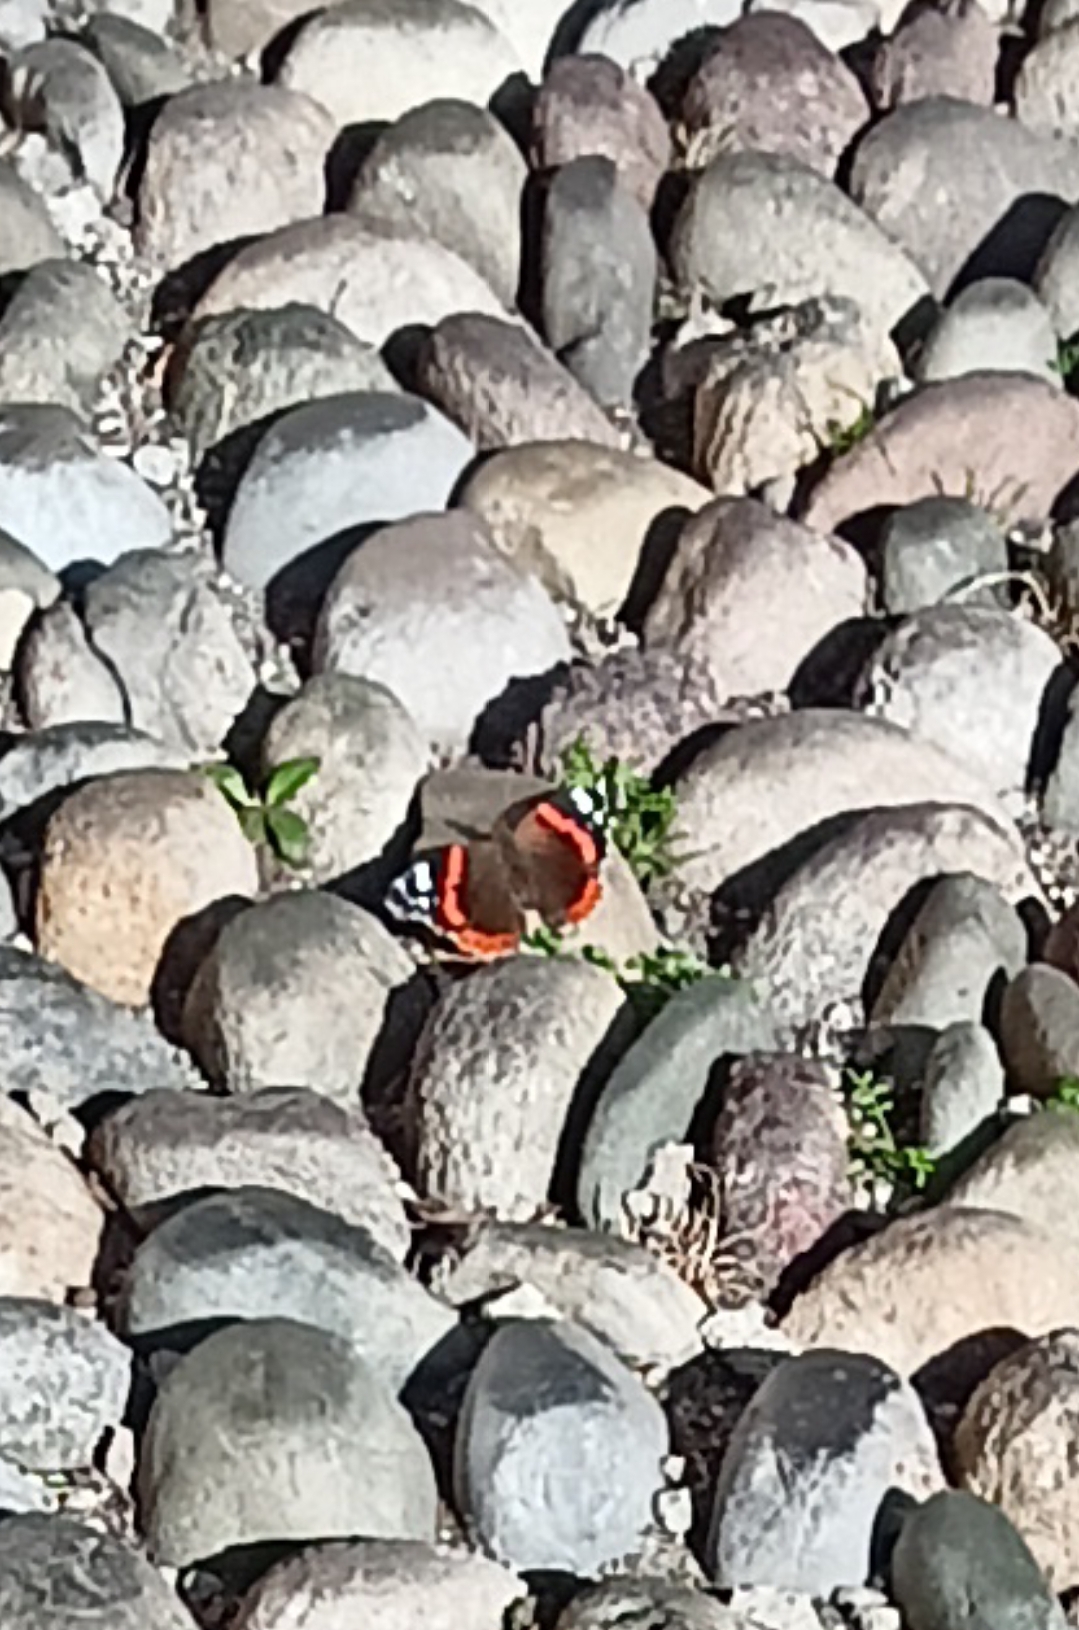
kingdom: Animalia
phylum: Arthropoda
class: Insecta
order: Lepidoptera
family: Nymphalidae
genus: Vanessa
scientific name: Vanessa atalanta
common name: Red admiral
